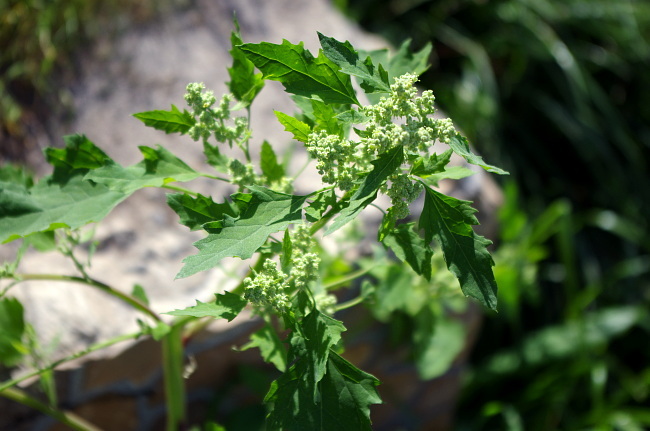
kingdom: Plantae
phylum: Tracheophyta
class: Magnoliopsida
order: Caryophyllales
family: Amaranthaceae
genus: Chenopodium
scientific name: Chenopodium album
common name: Fat-hen
